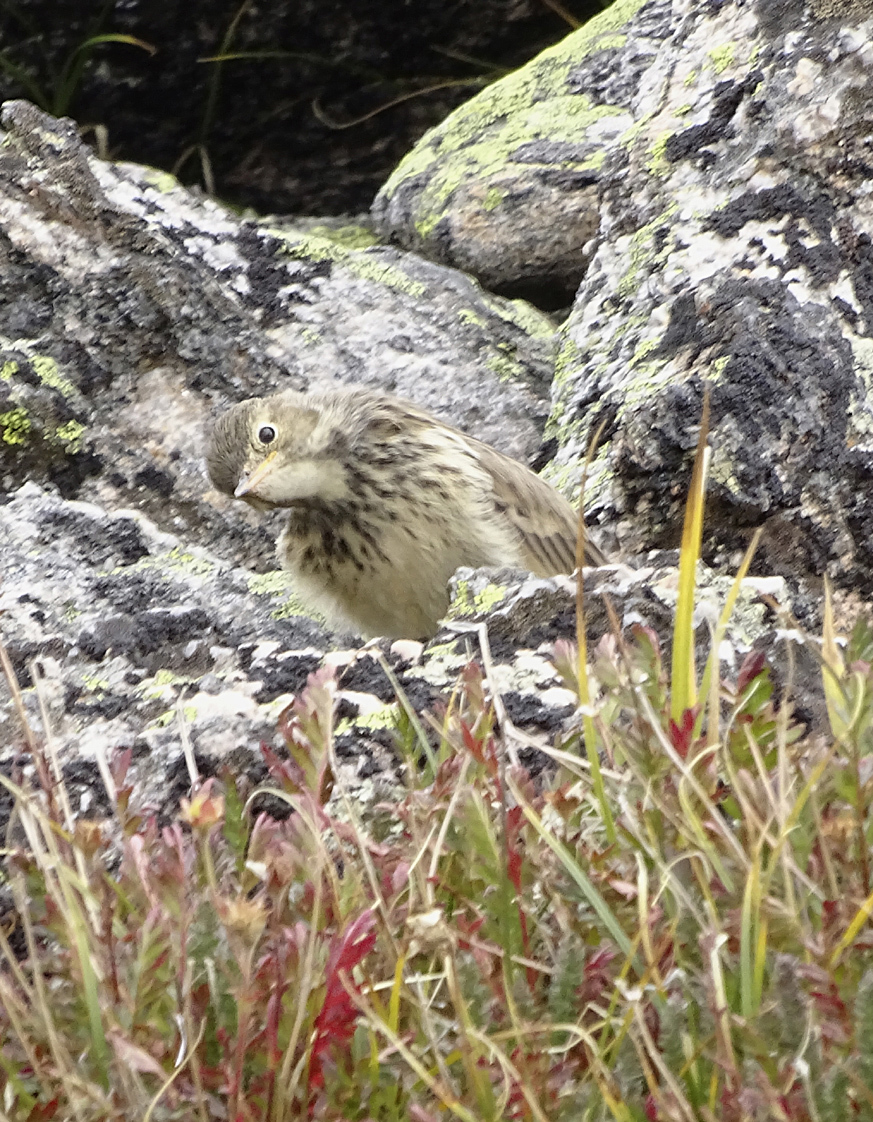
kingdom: Animalia
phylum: Chordata
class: Aves
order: Passeriformes
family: Motacillidae
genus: Anthus
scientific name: Anthus rubescens
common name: Buff-bellied pipit
